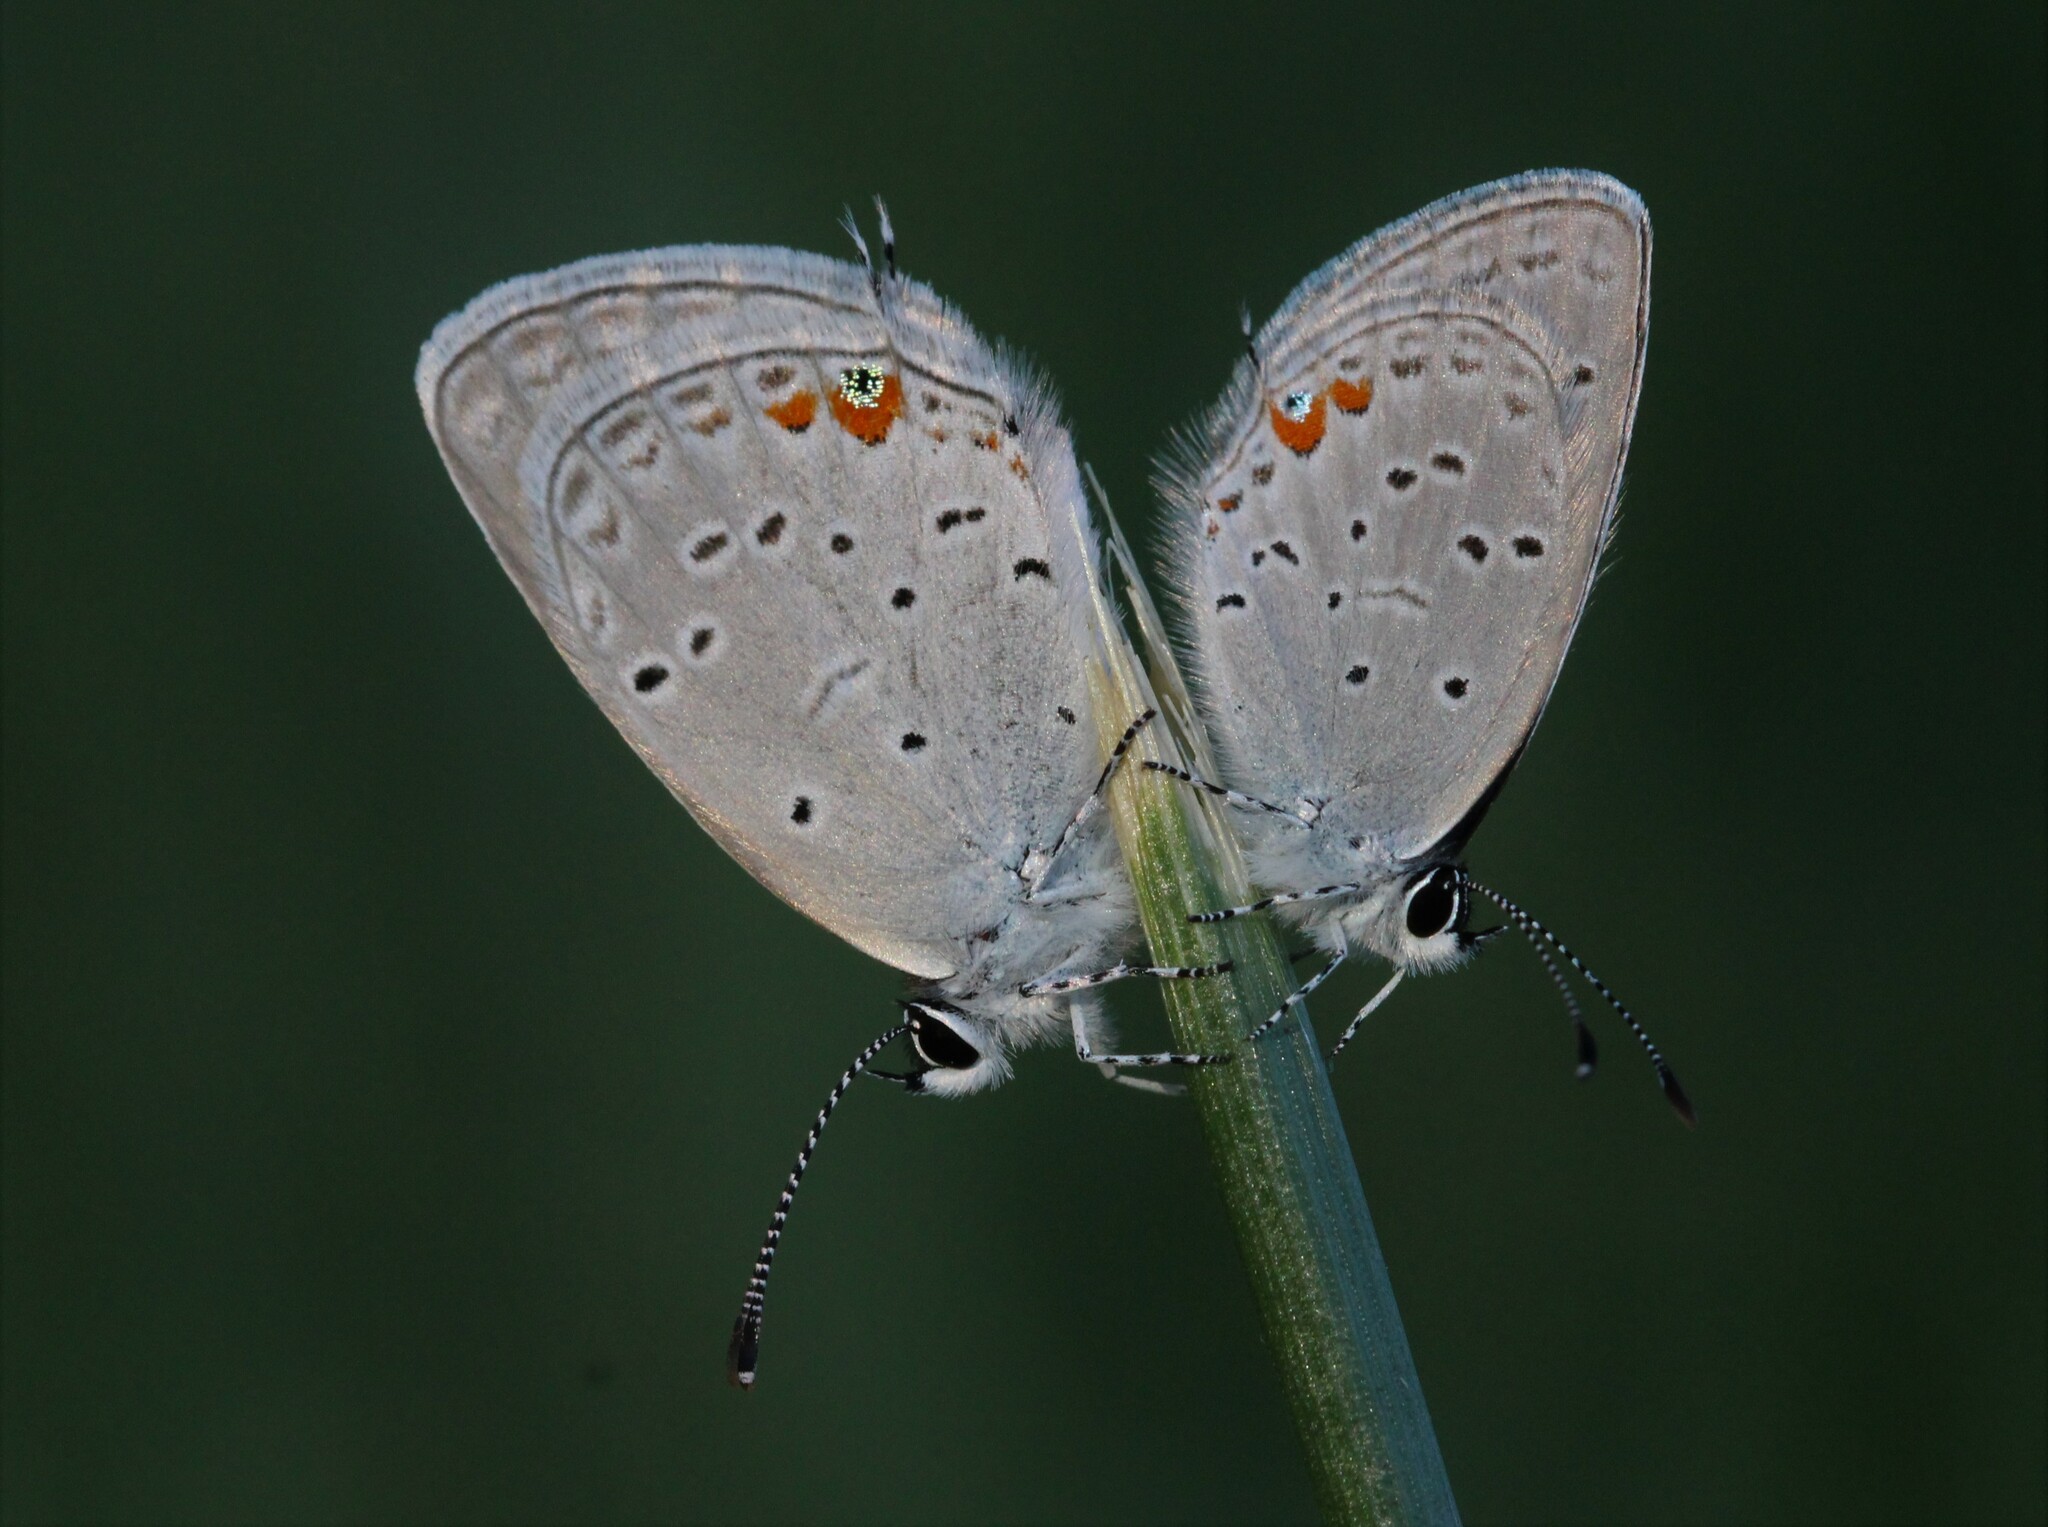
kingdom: Animalia
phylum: Arthropoda
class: Insecta
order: Lepidoptera
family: Lycaenidae
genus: Elkalyce
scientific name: Elkalyce comyntas
